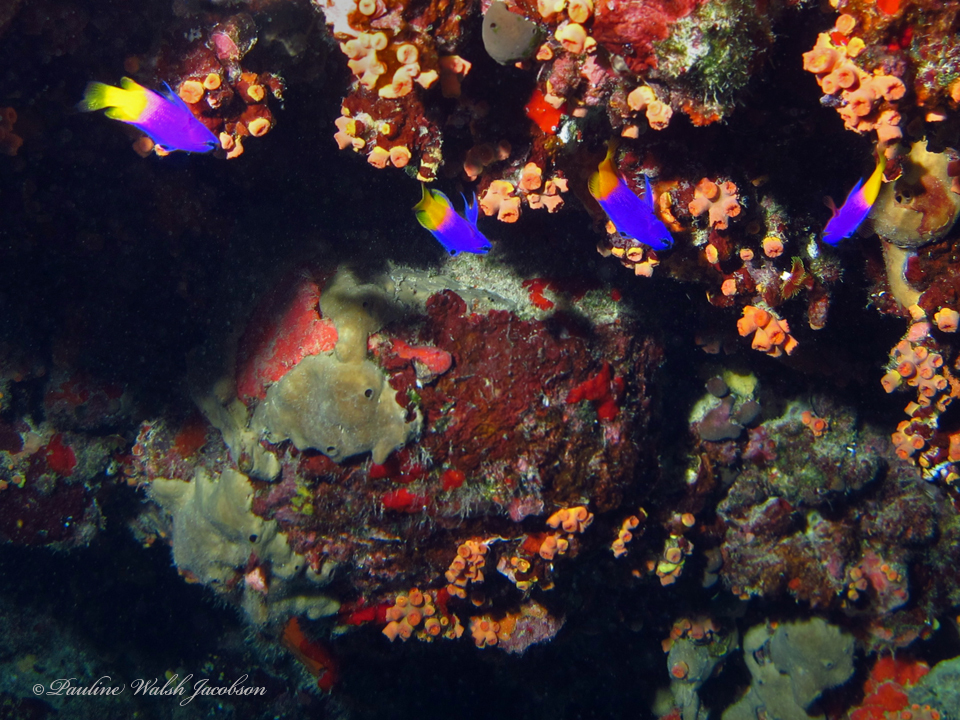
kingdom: Animalia
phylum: Chordata
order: Perciformes
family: Grammatidae
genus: Gramma
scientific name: Gramma loreto
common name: Fairy basslet
